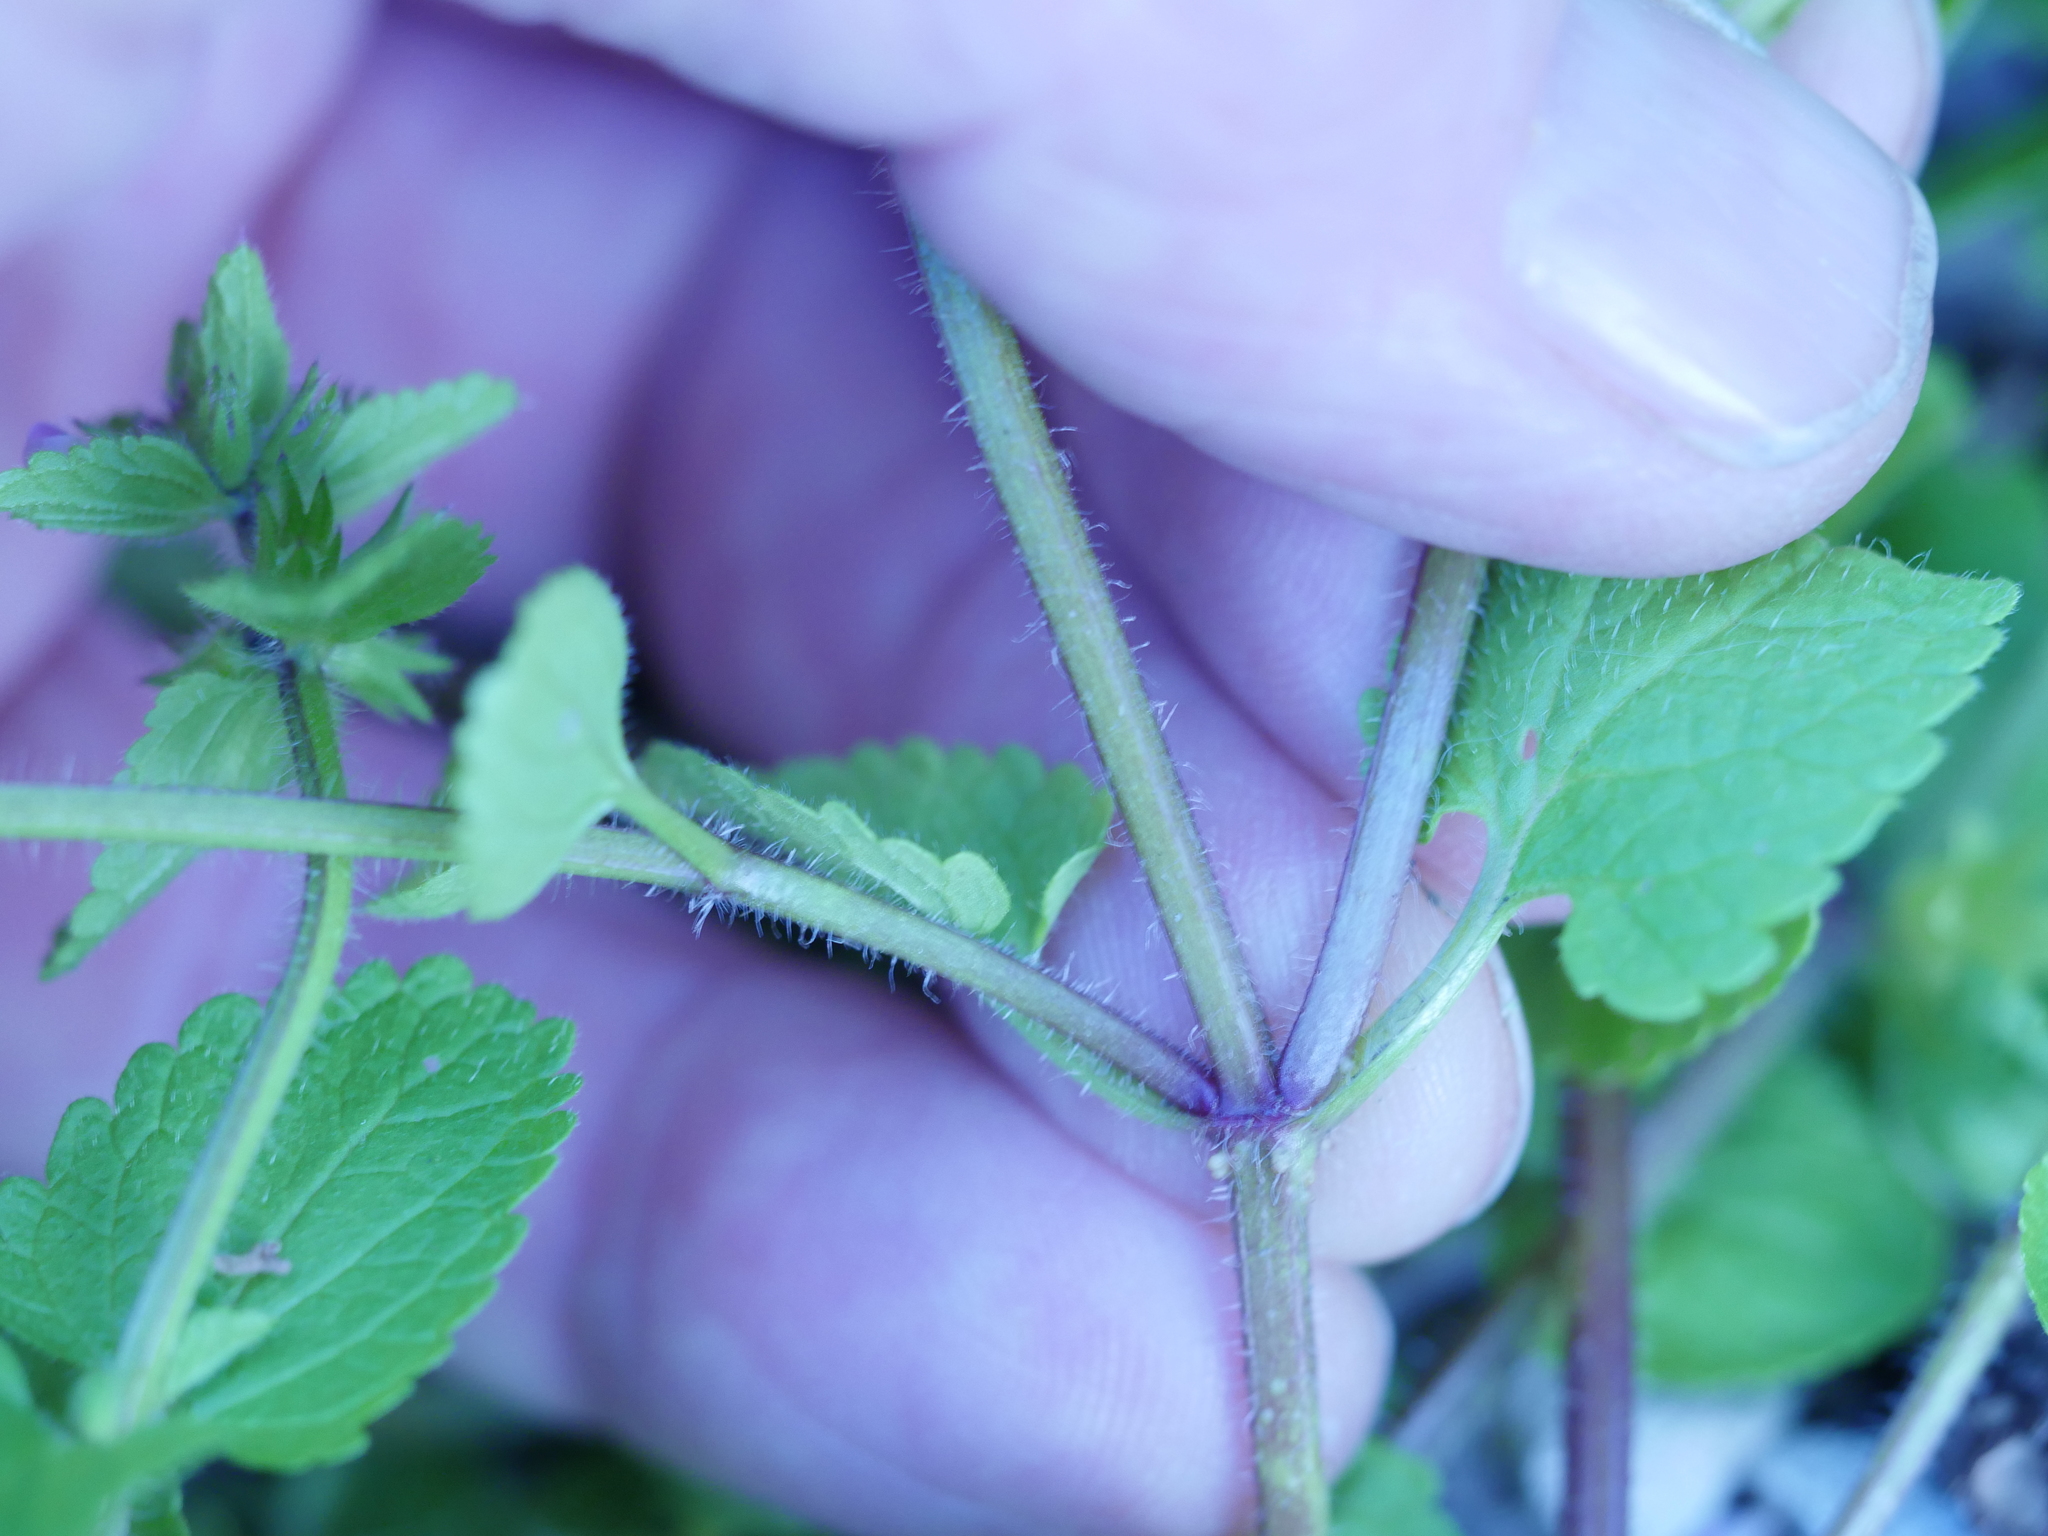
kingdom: Plantae
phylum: Tracheophyta
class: Magnoliopsida
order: Lamiales
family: Lamiaceae
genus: Stachys
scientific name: Stachys arvensis
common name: Field woundwort
